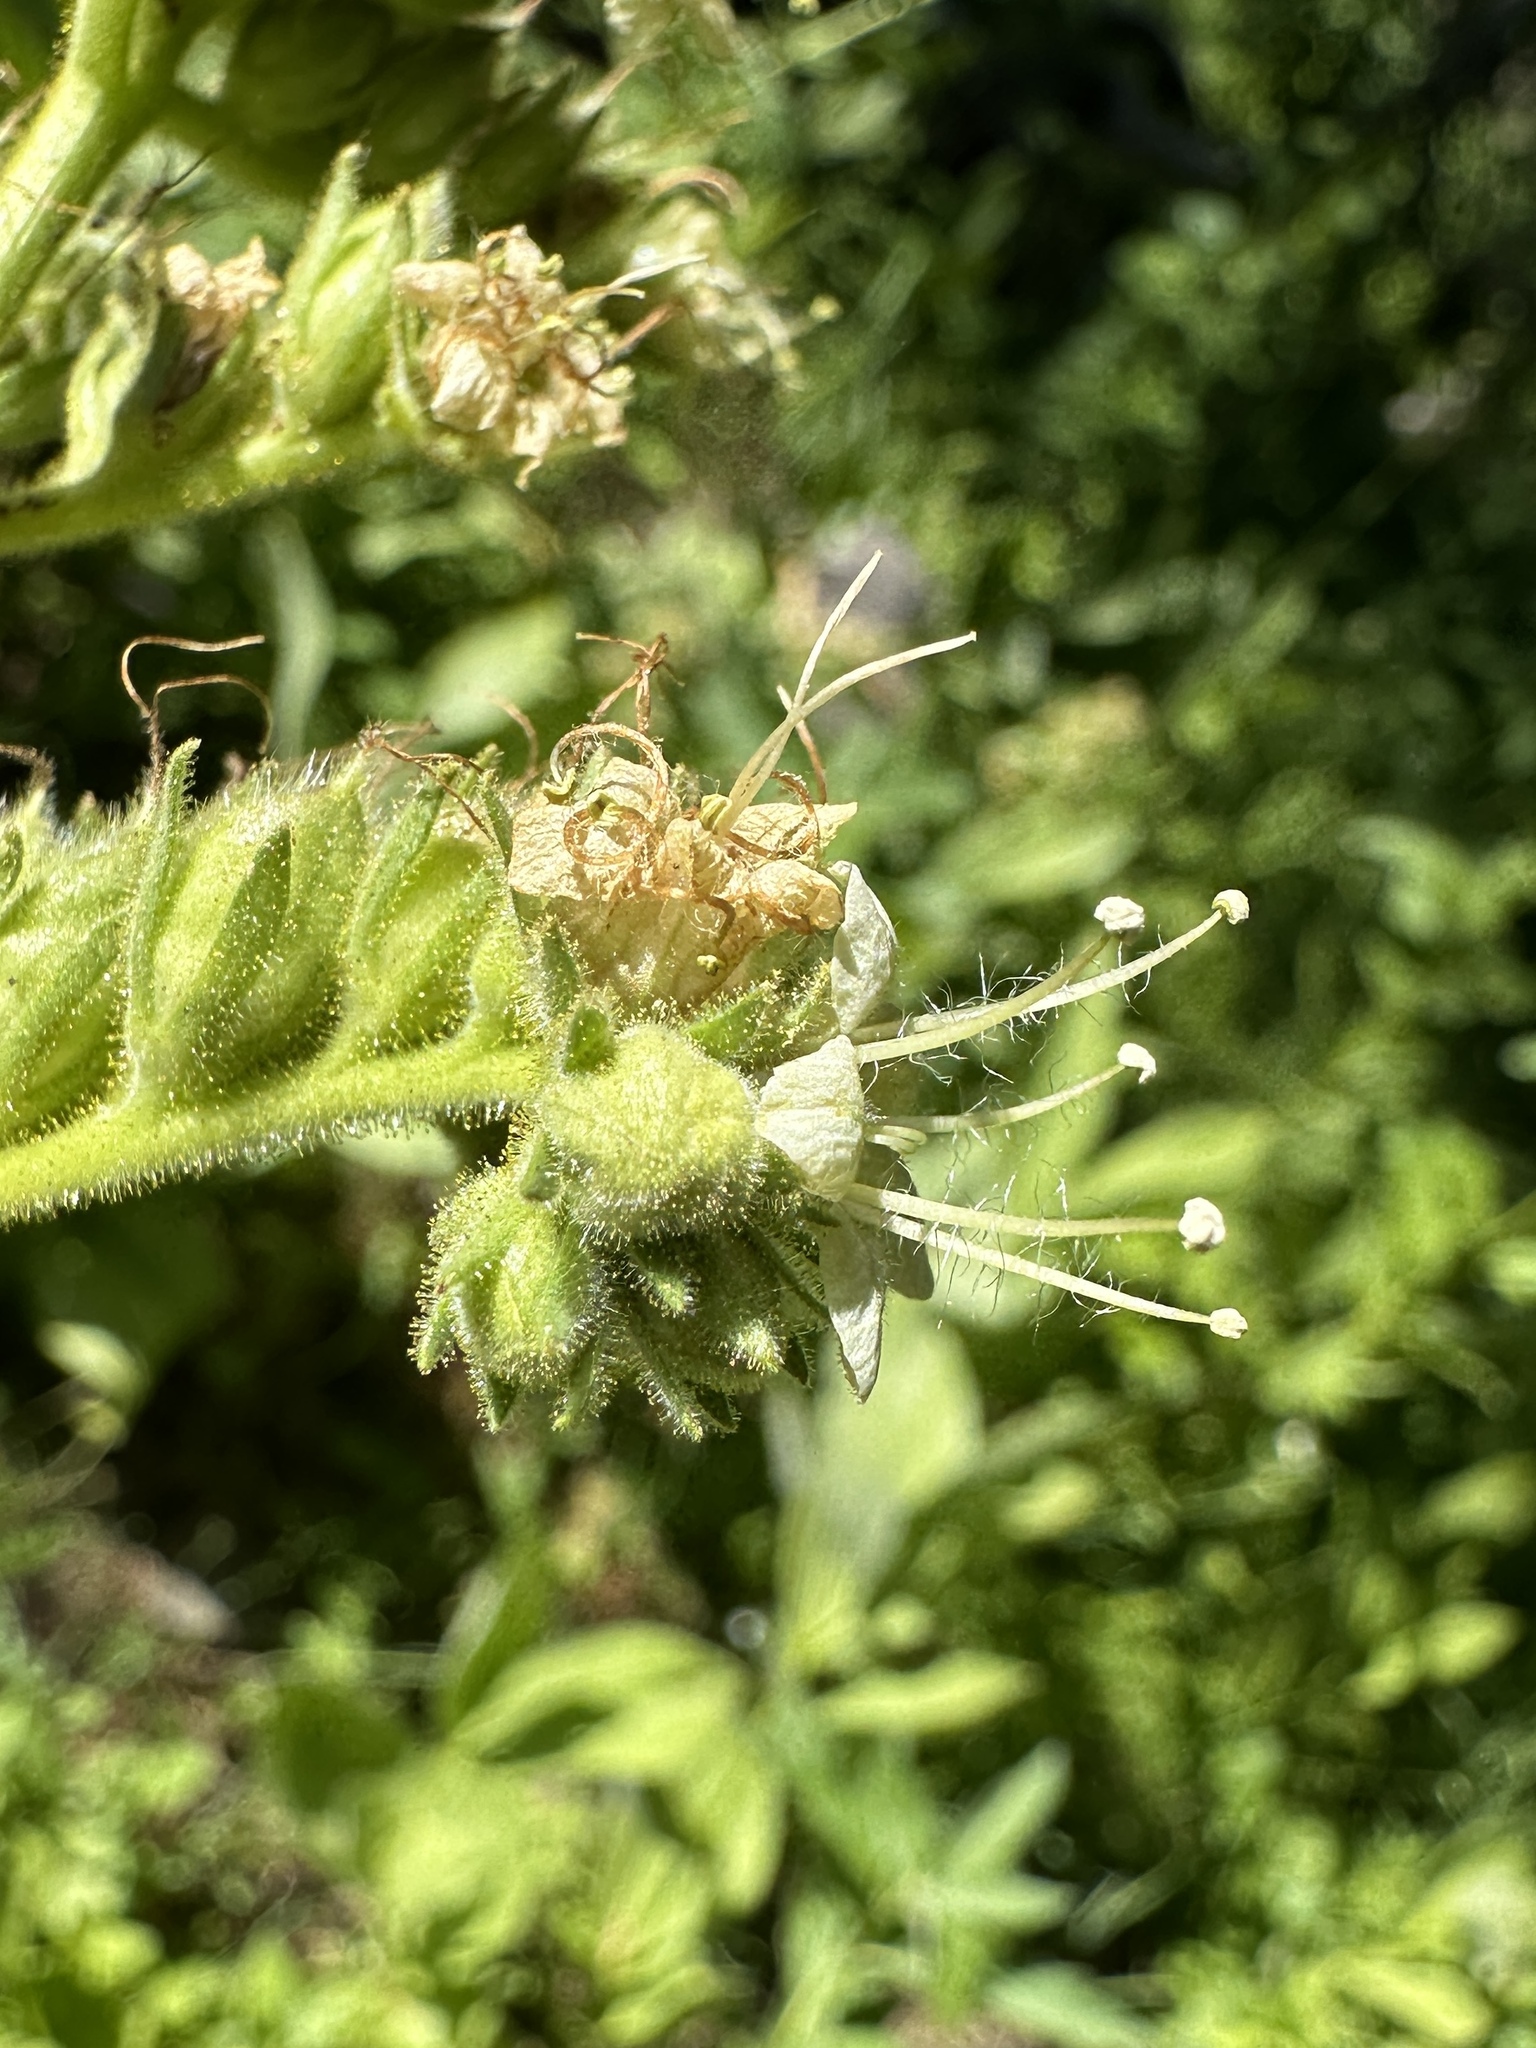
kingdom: Plantae
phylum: Tracheophyta
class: Magnoliopsida
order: Boraginales
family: Hydrophyllaceae
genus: Phacelia
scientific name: Phacelia procera
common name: Tall phacelia
